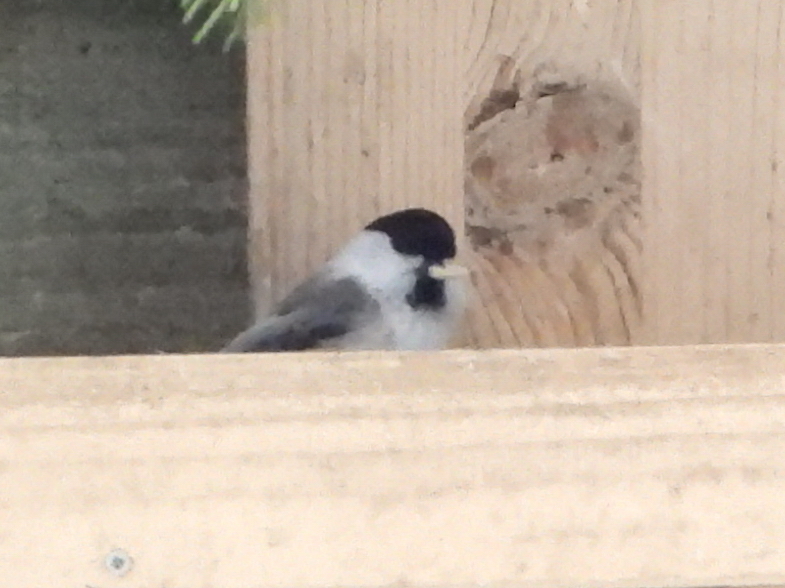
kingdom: Animalia
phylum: Chordata
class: Aves
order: Passeriformes
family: Paridae
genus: Poecile
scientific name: Poecile montanus
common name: Willow tit
